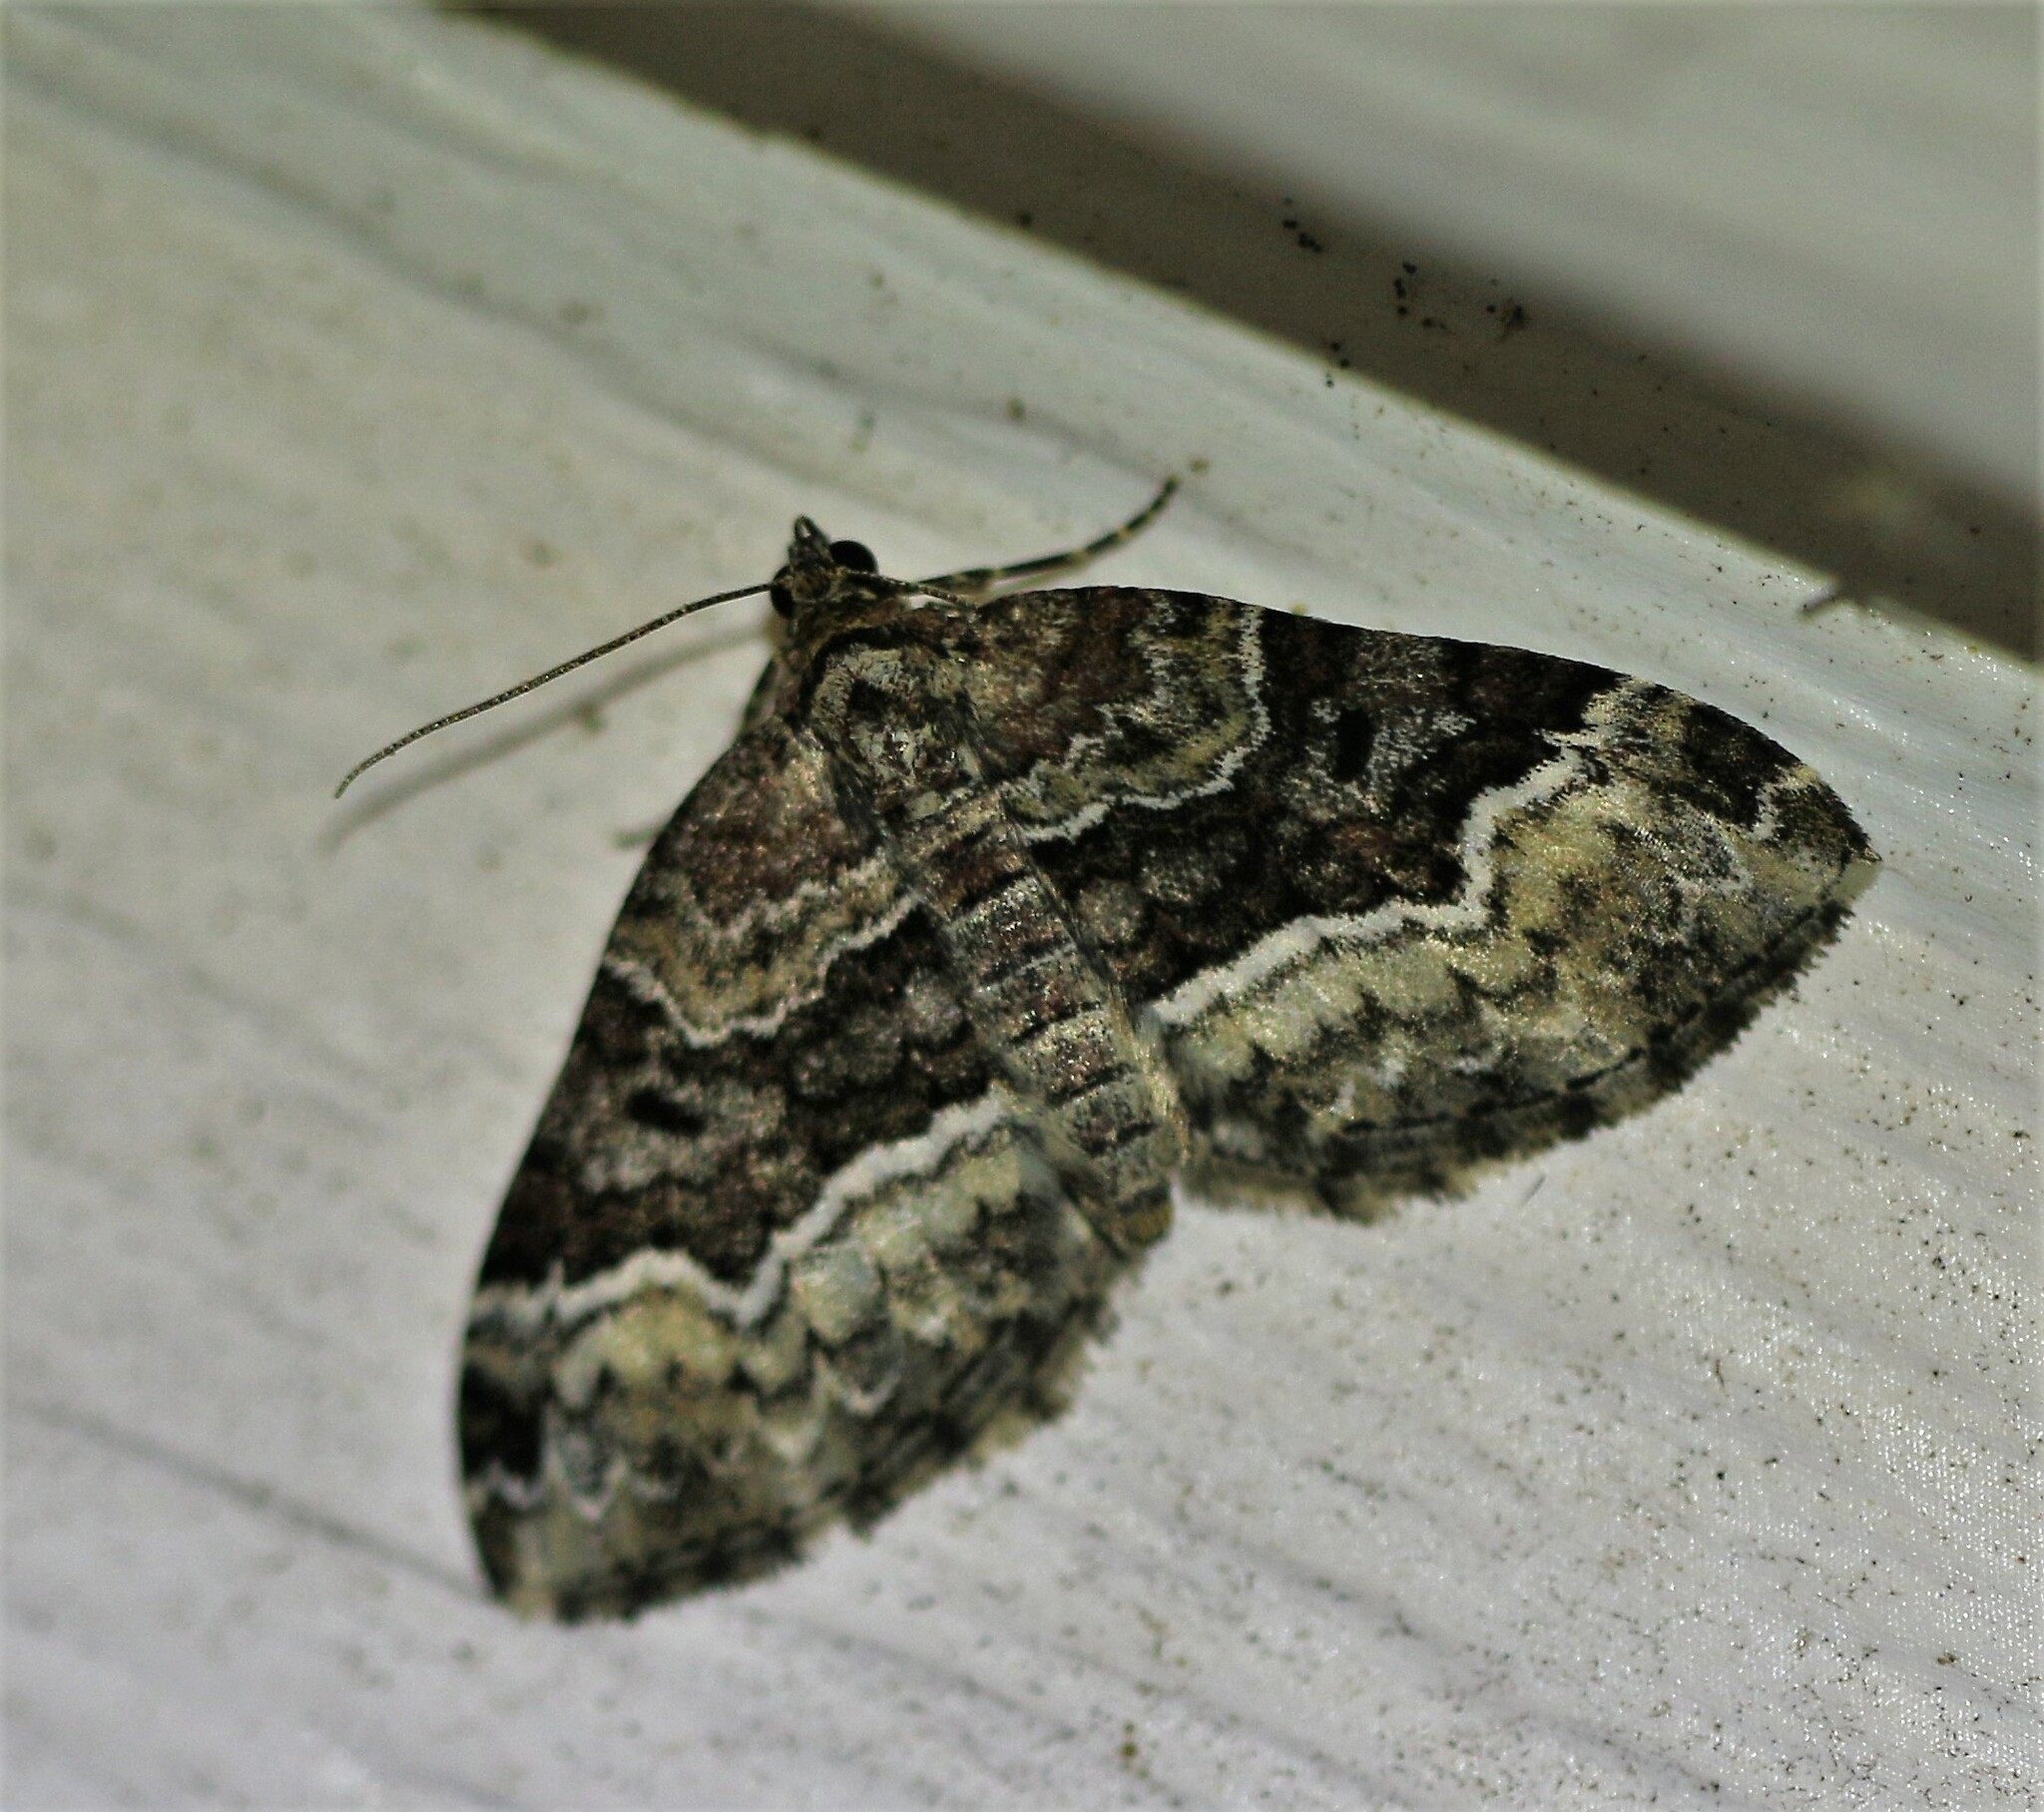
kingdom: Animalia
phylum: Arthropoda
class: Insecta
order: Lepidoptera
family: Geometridae
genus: Euphyia
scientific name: Euphyia intermediata
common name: Sharp-angled carpet
